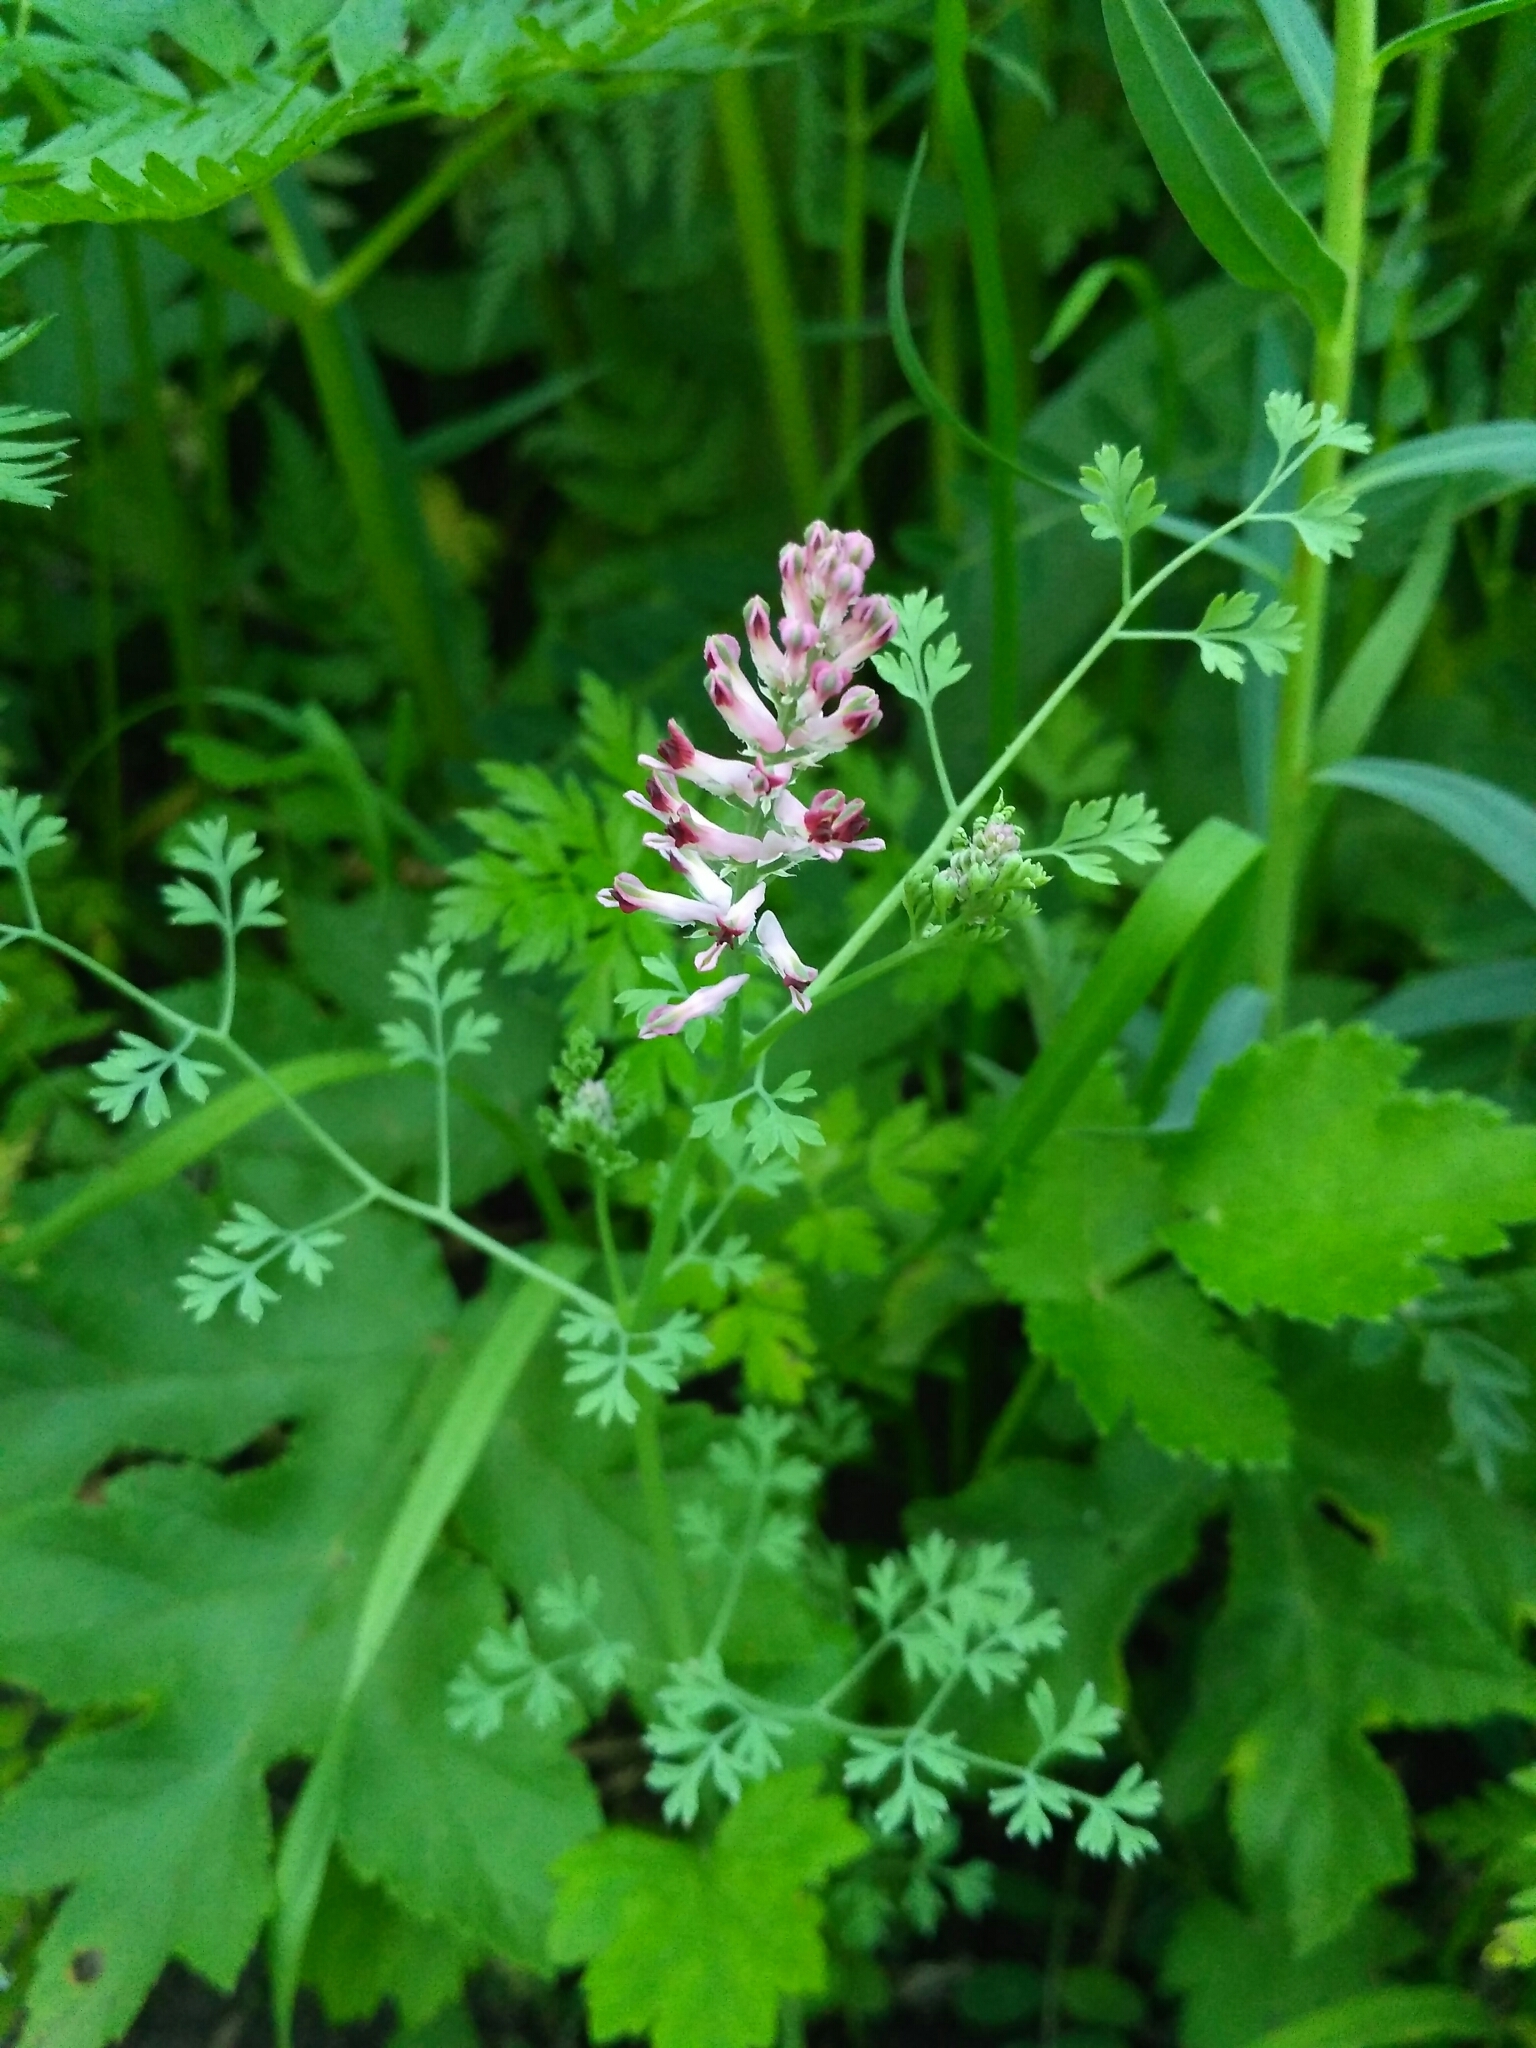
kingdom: Plantae
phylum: Tracheophyta
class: Magnoliopsida
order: Ranunculales
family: Papaveraceae
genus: Fumaria
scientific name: Fumaria officinalis
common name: Common fumitory
